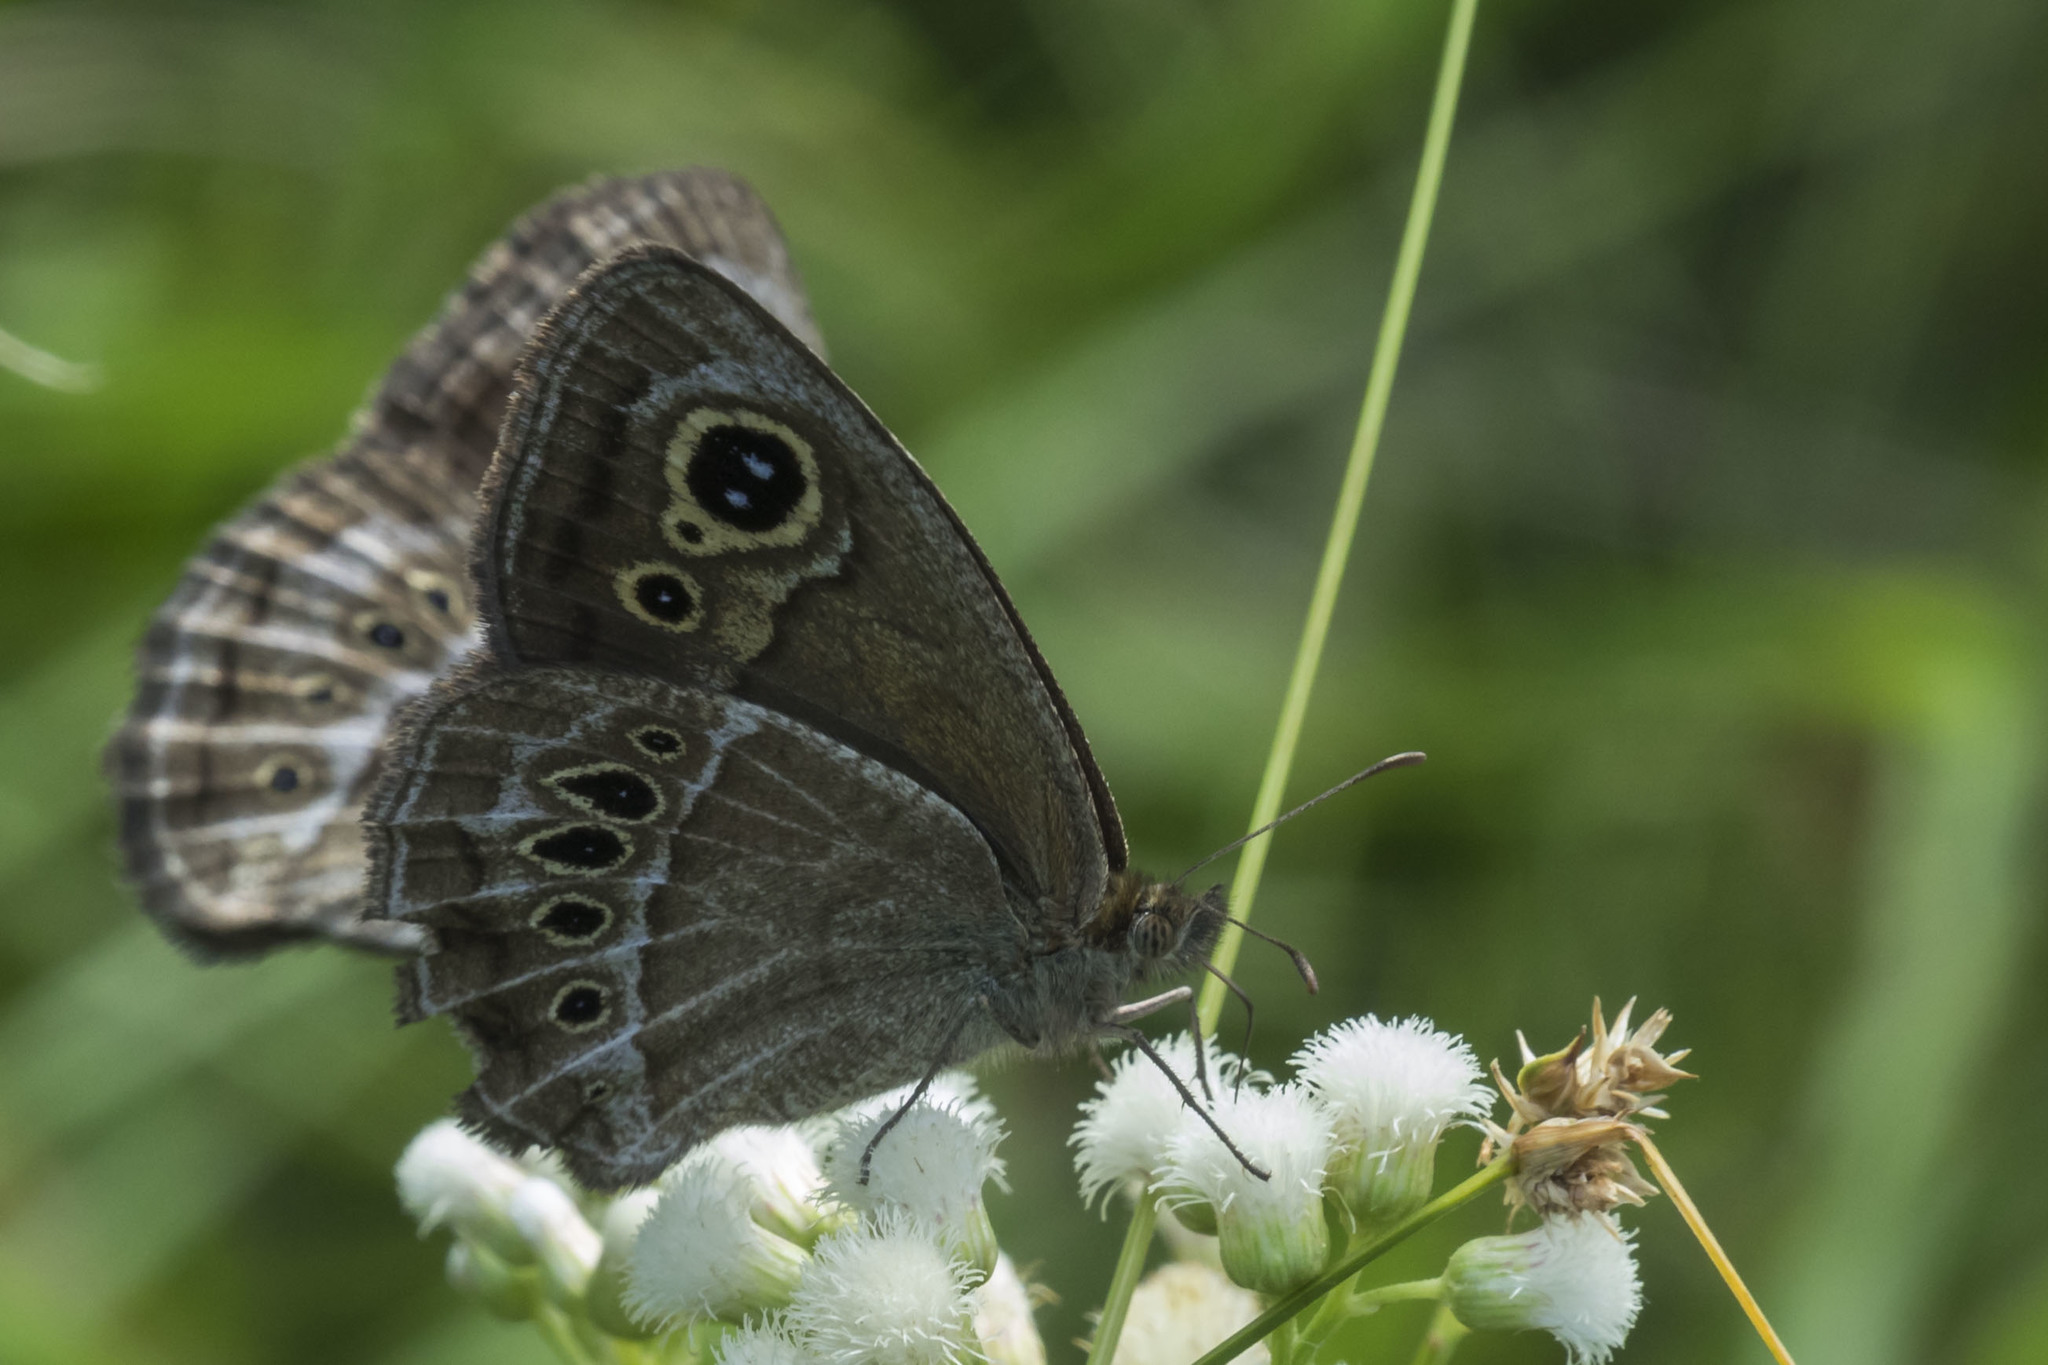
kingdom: Animalia
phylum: Arthropoda
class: Insecta
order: Lepidoptera
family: Nymphalidae
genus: Pampasatyrus
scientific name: Pampasatyrus gyrtone
